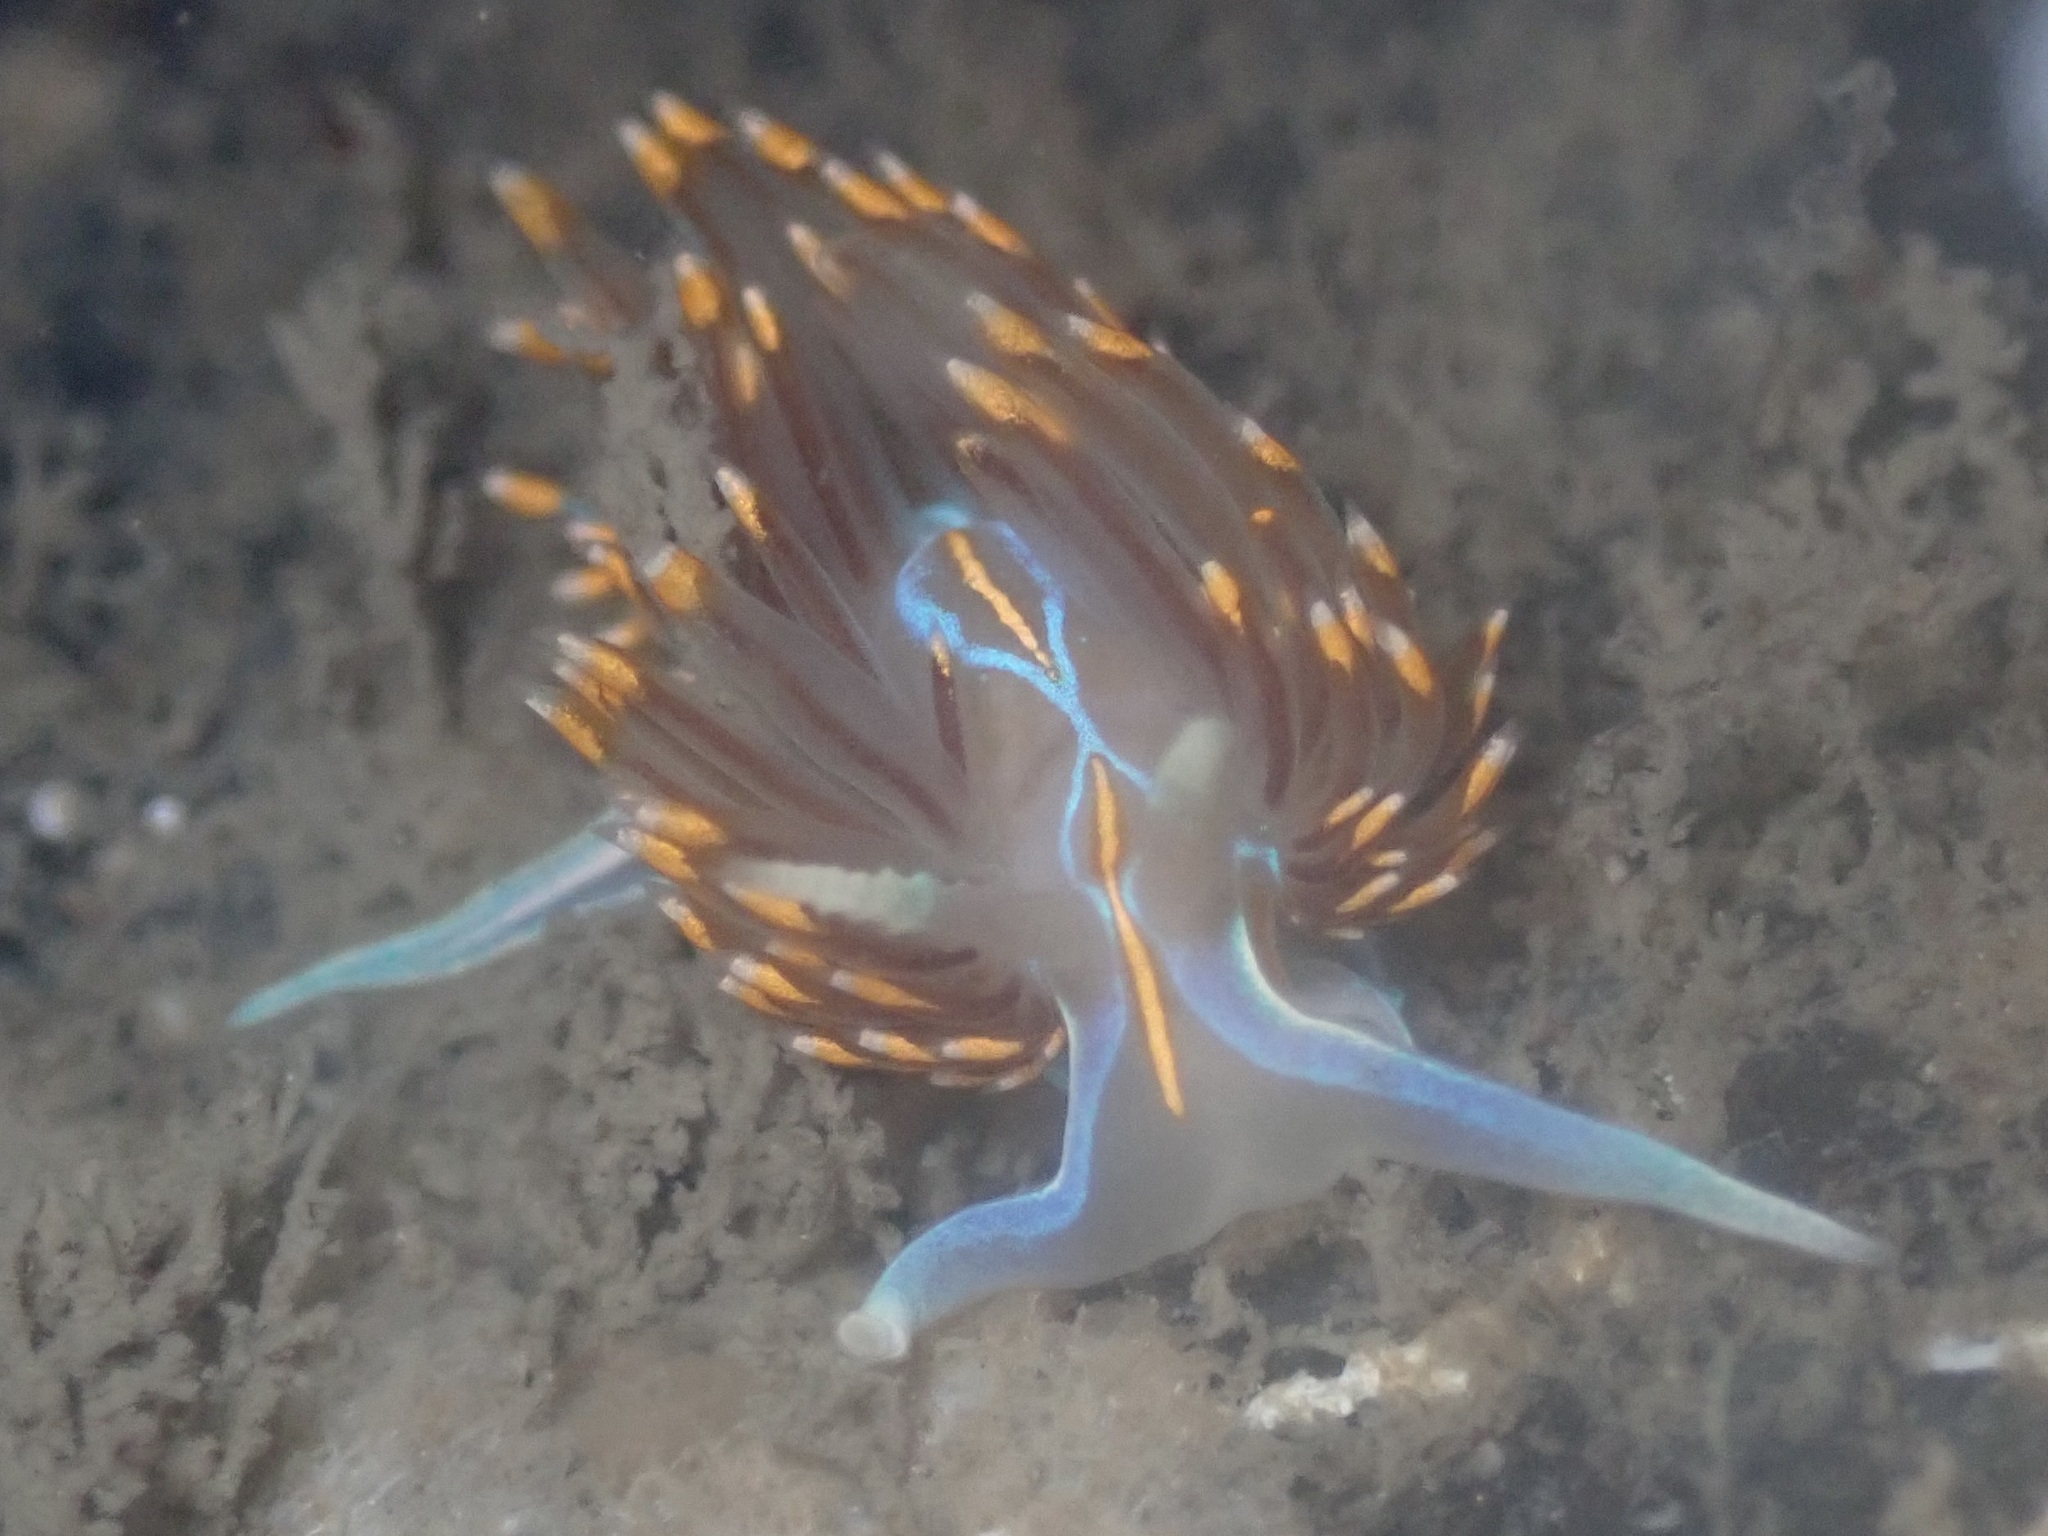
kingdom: Animalia
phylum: Mollusca
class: Gastropoda
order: Nudibranchia
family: Myrrhinidae
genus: Hermissenda
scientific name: Hermissenda opalescens
